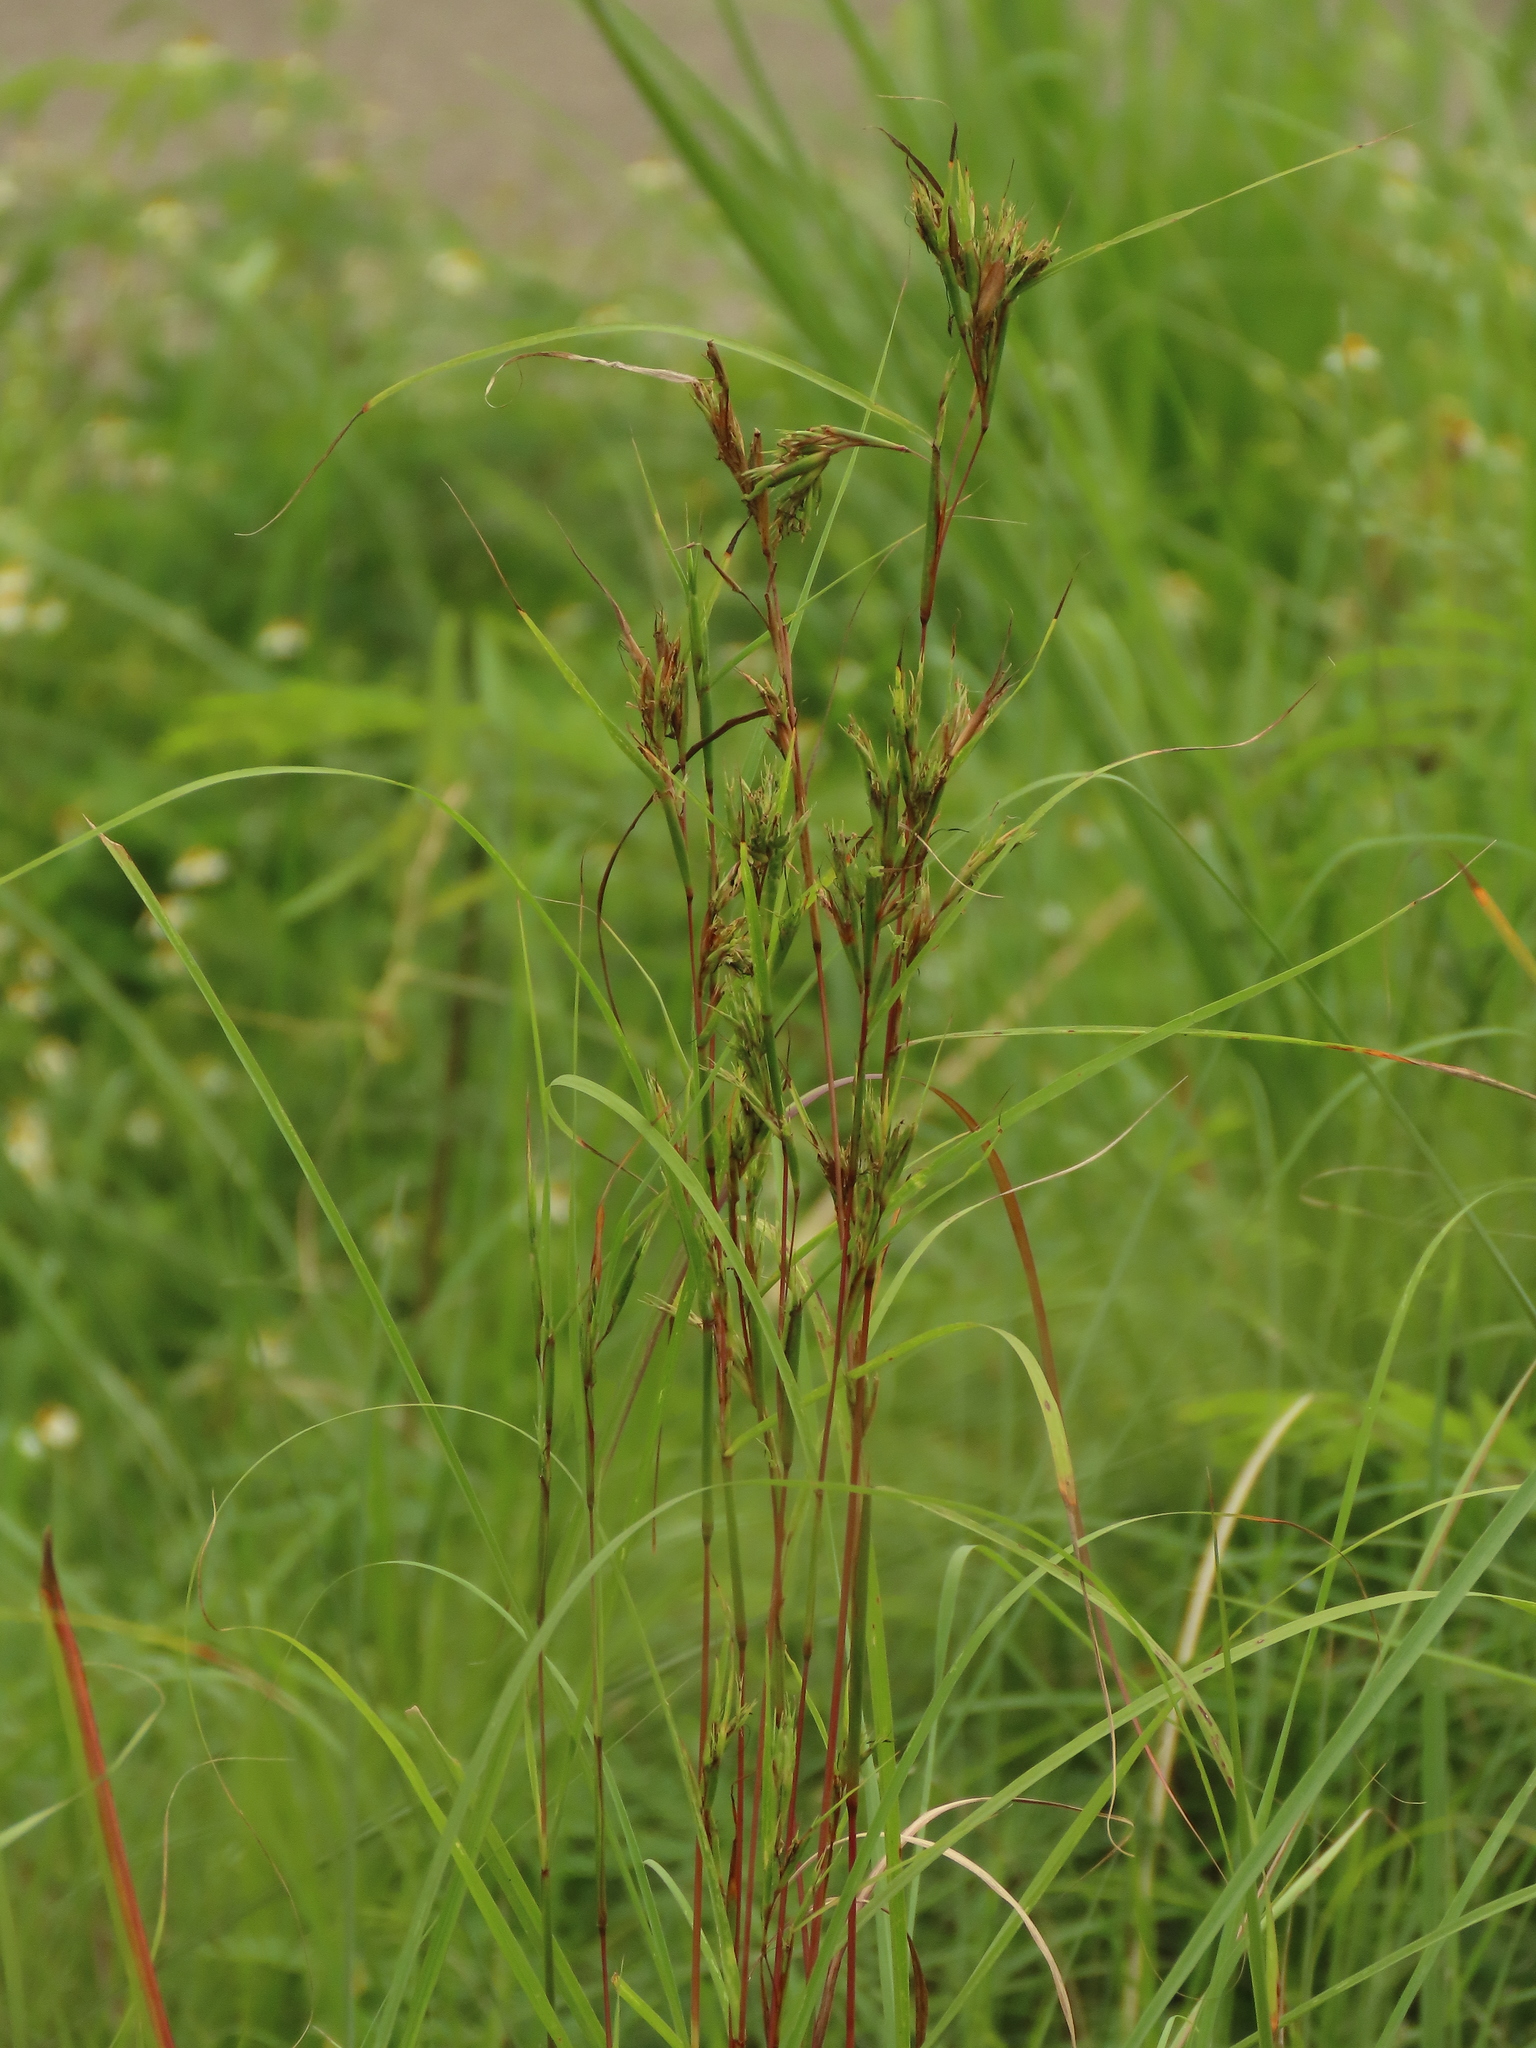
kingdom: Plantae
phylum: Tracheophyta
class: Liliopsida
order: Poales
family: Poaceae
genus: Cymbopogon
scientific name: Cymbopogon tortilis
